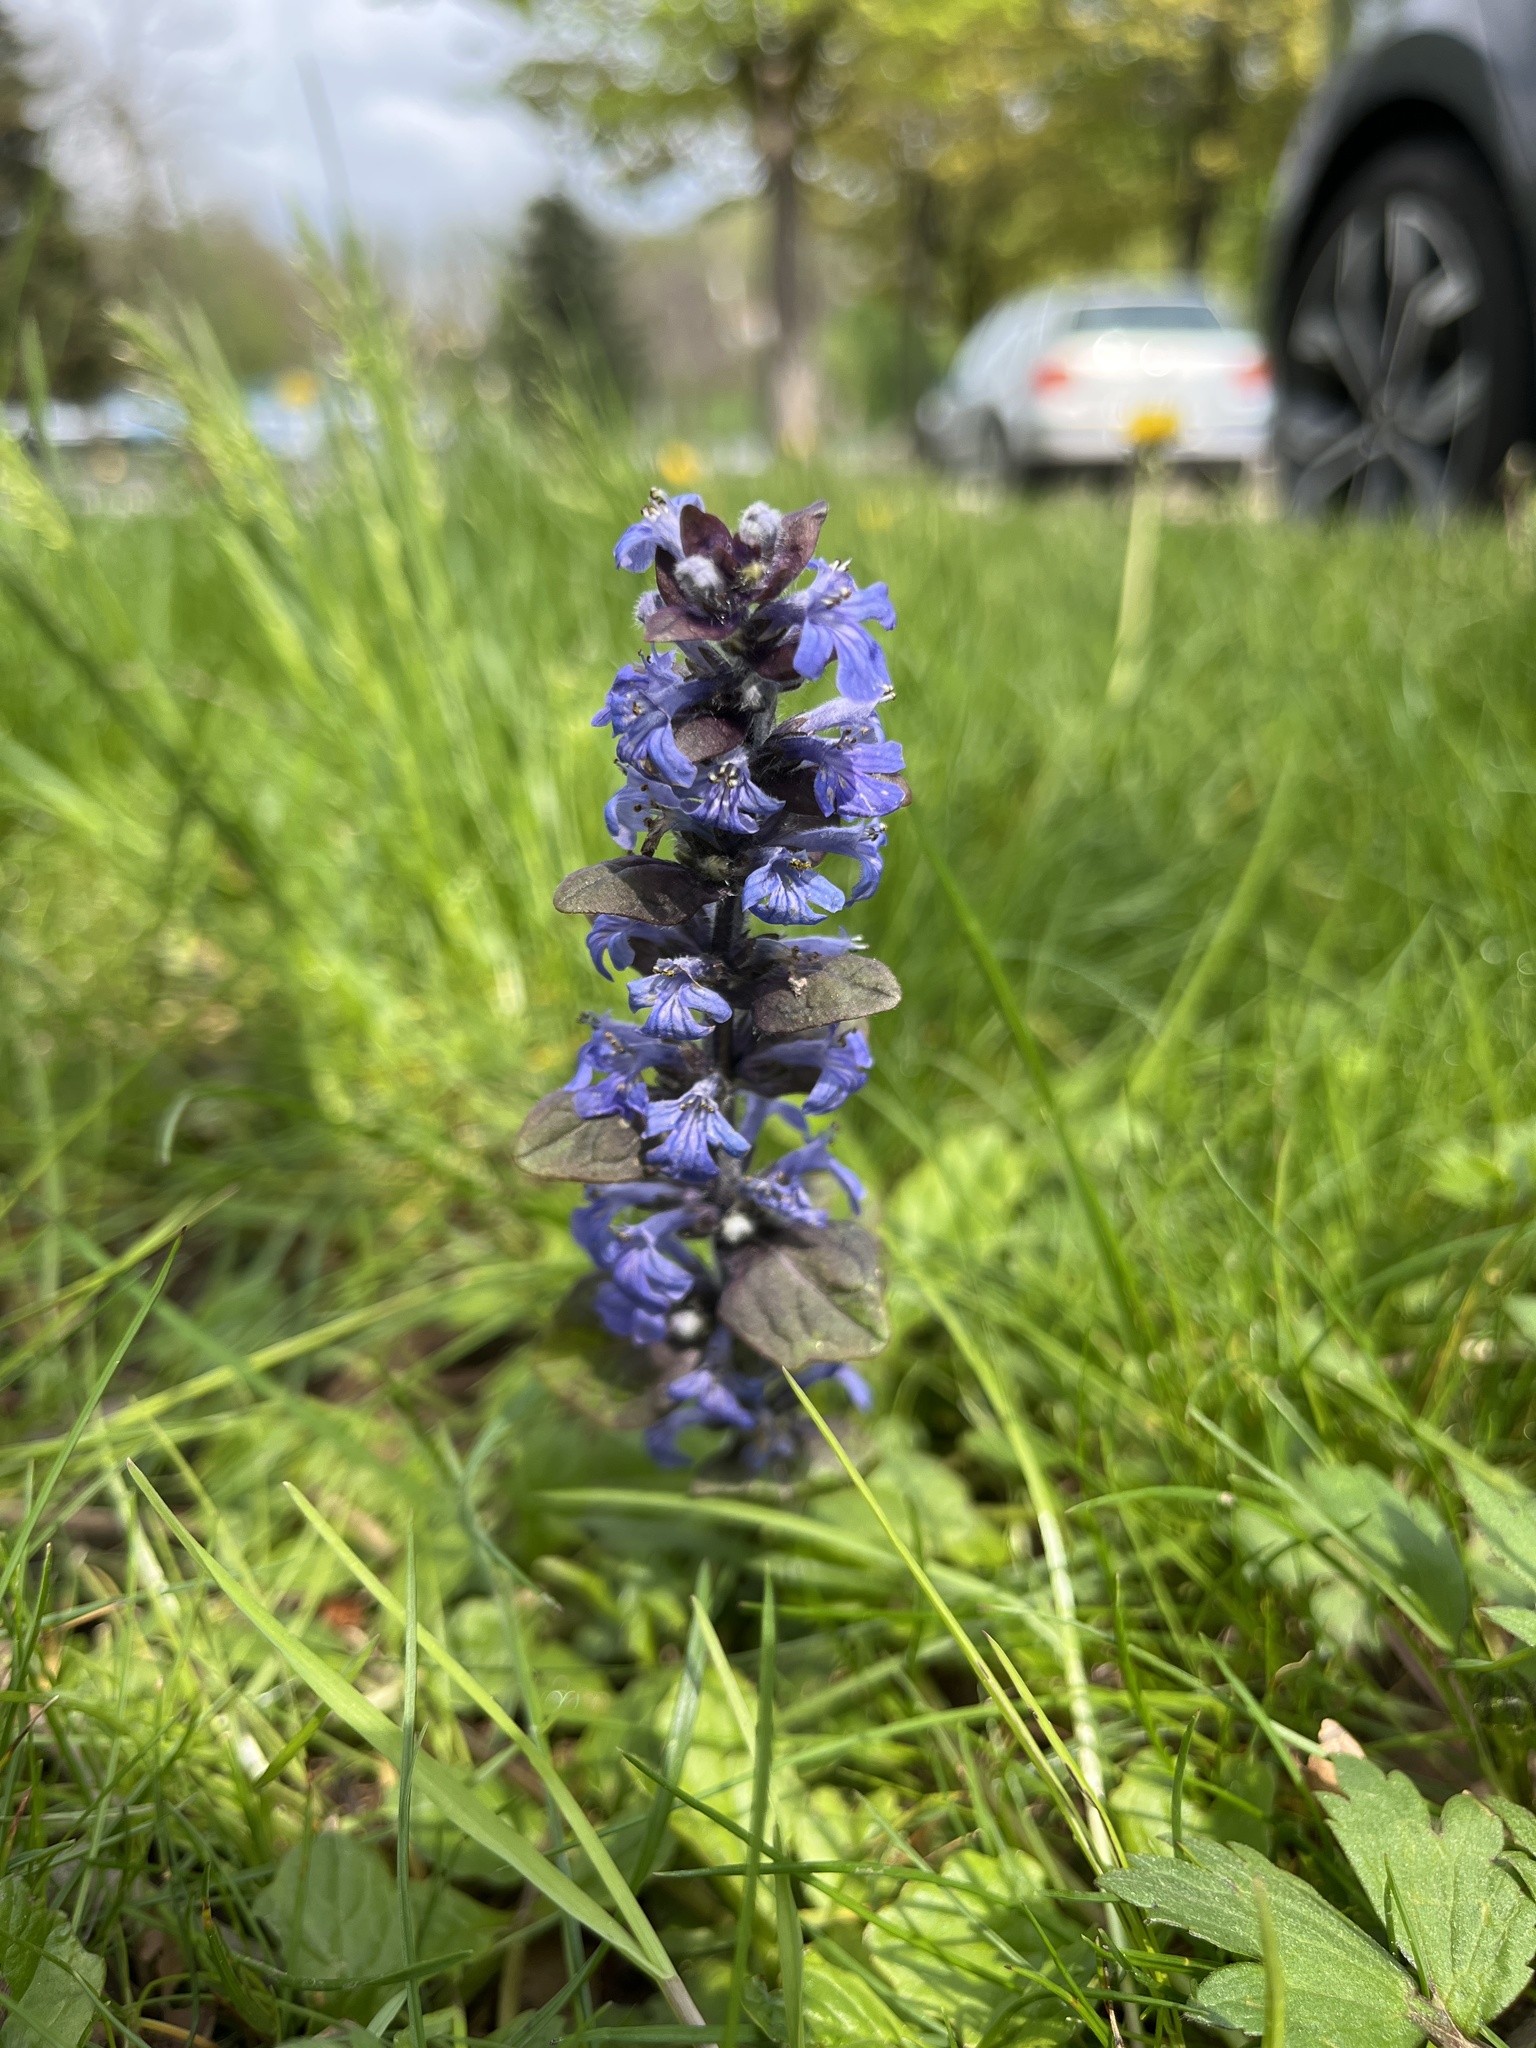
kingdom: Plantae
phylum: Tracheophyta
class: Magnoliopsida
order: Lamiales
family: Lamiaceae
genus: Ajuga
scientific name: Ajuga reptans
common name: Bugle
